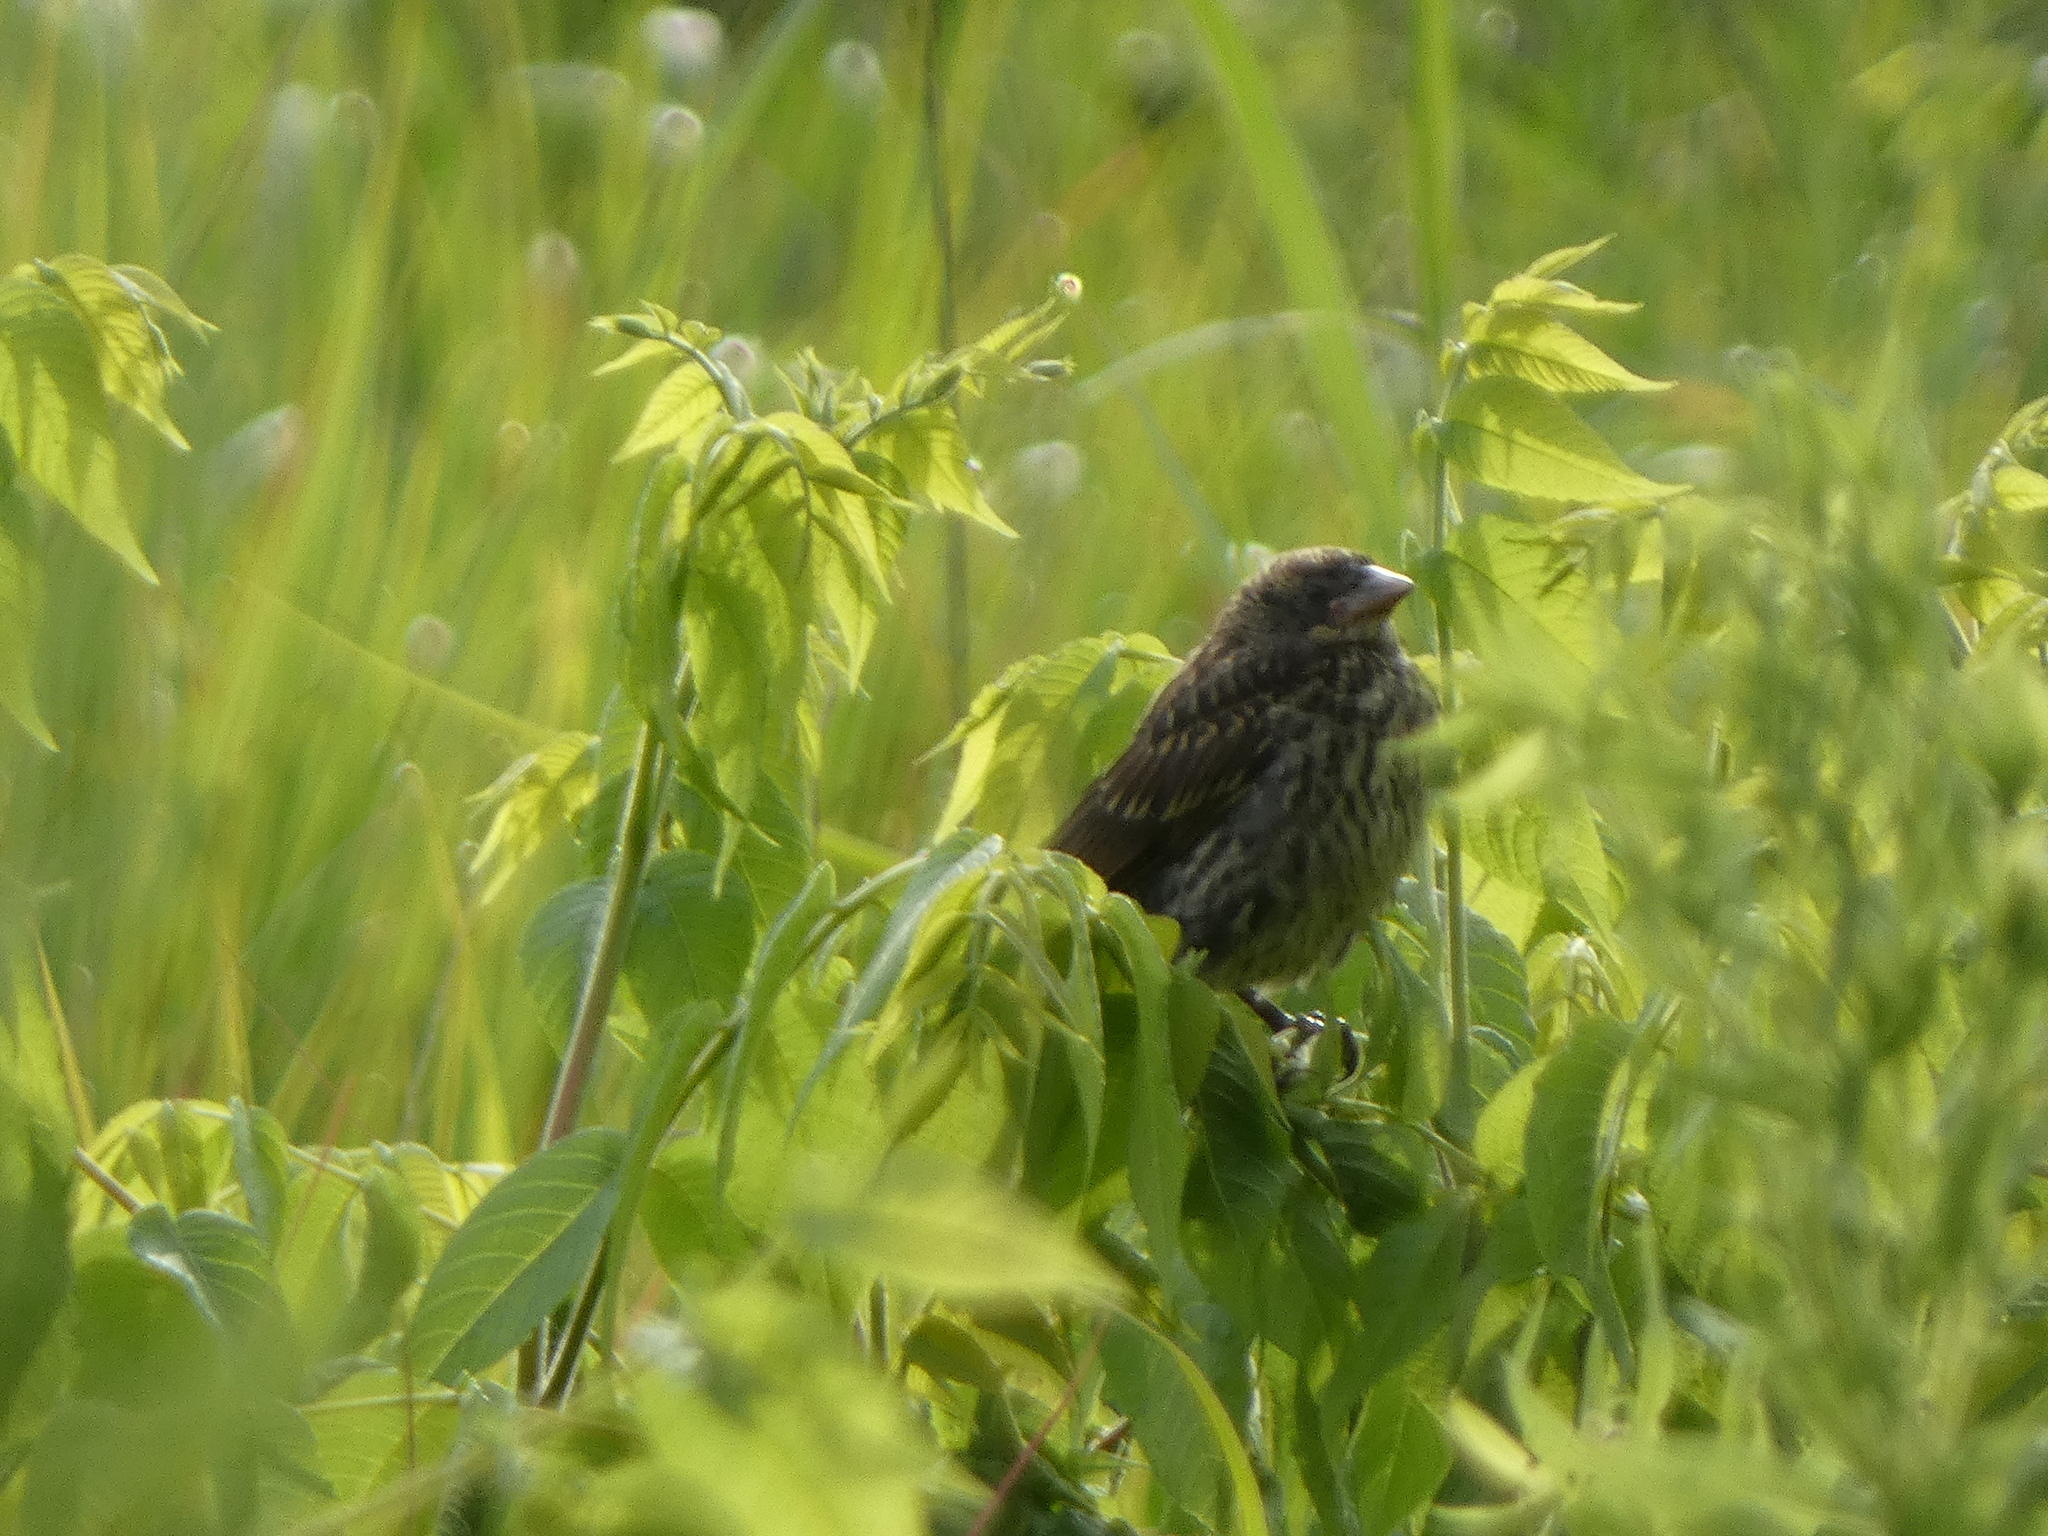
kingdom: Animalia
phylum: Chordata
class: Aves
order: Passeriformes
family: Icteridae
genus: Agelaius
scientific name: Agelaius phoeniceus
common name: Red-winged blackbird
